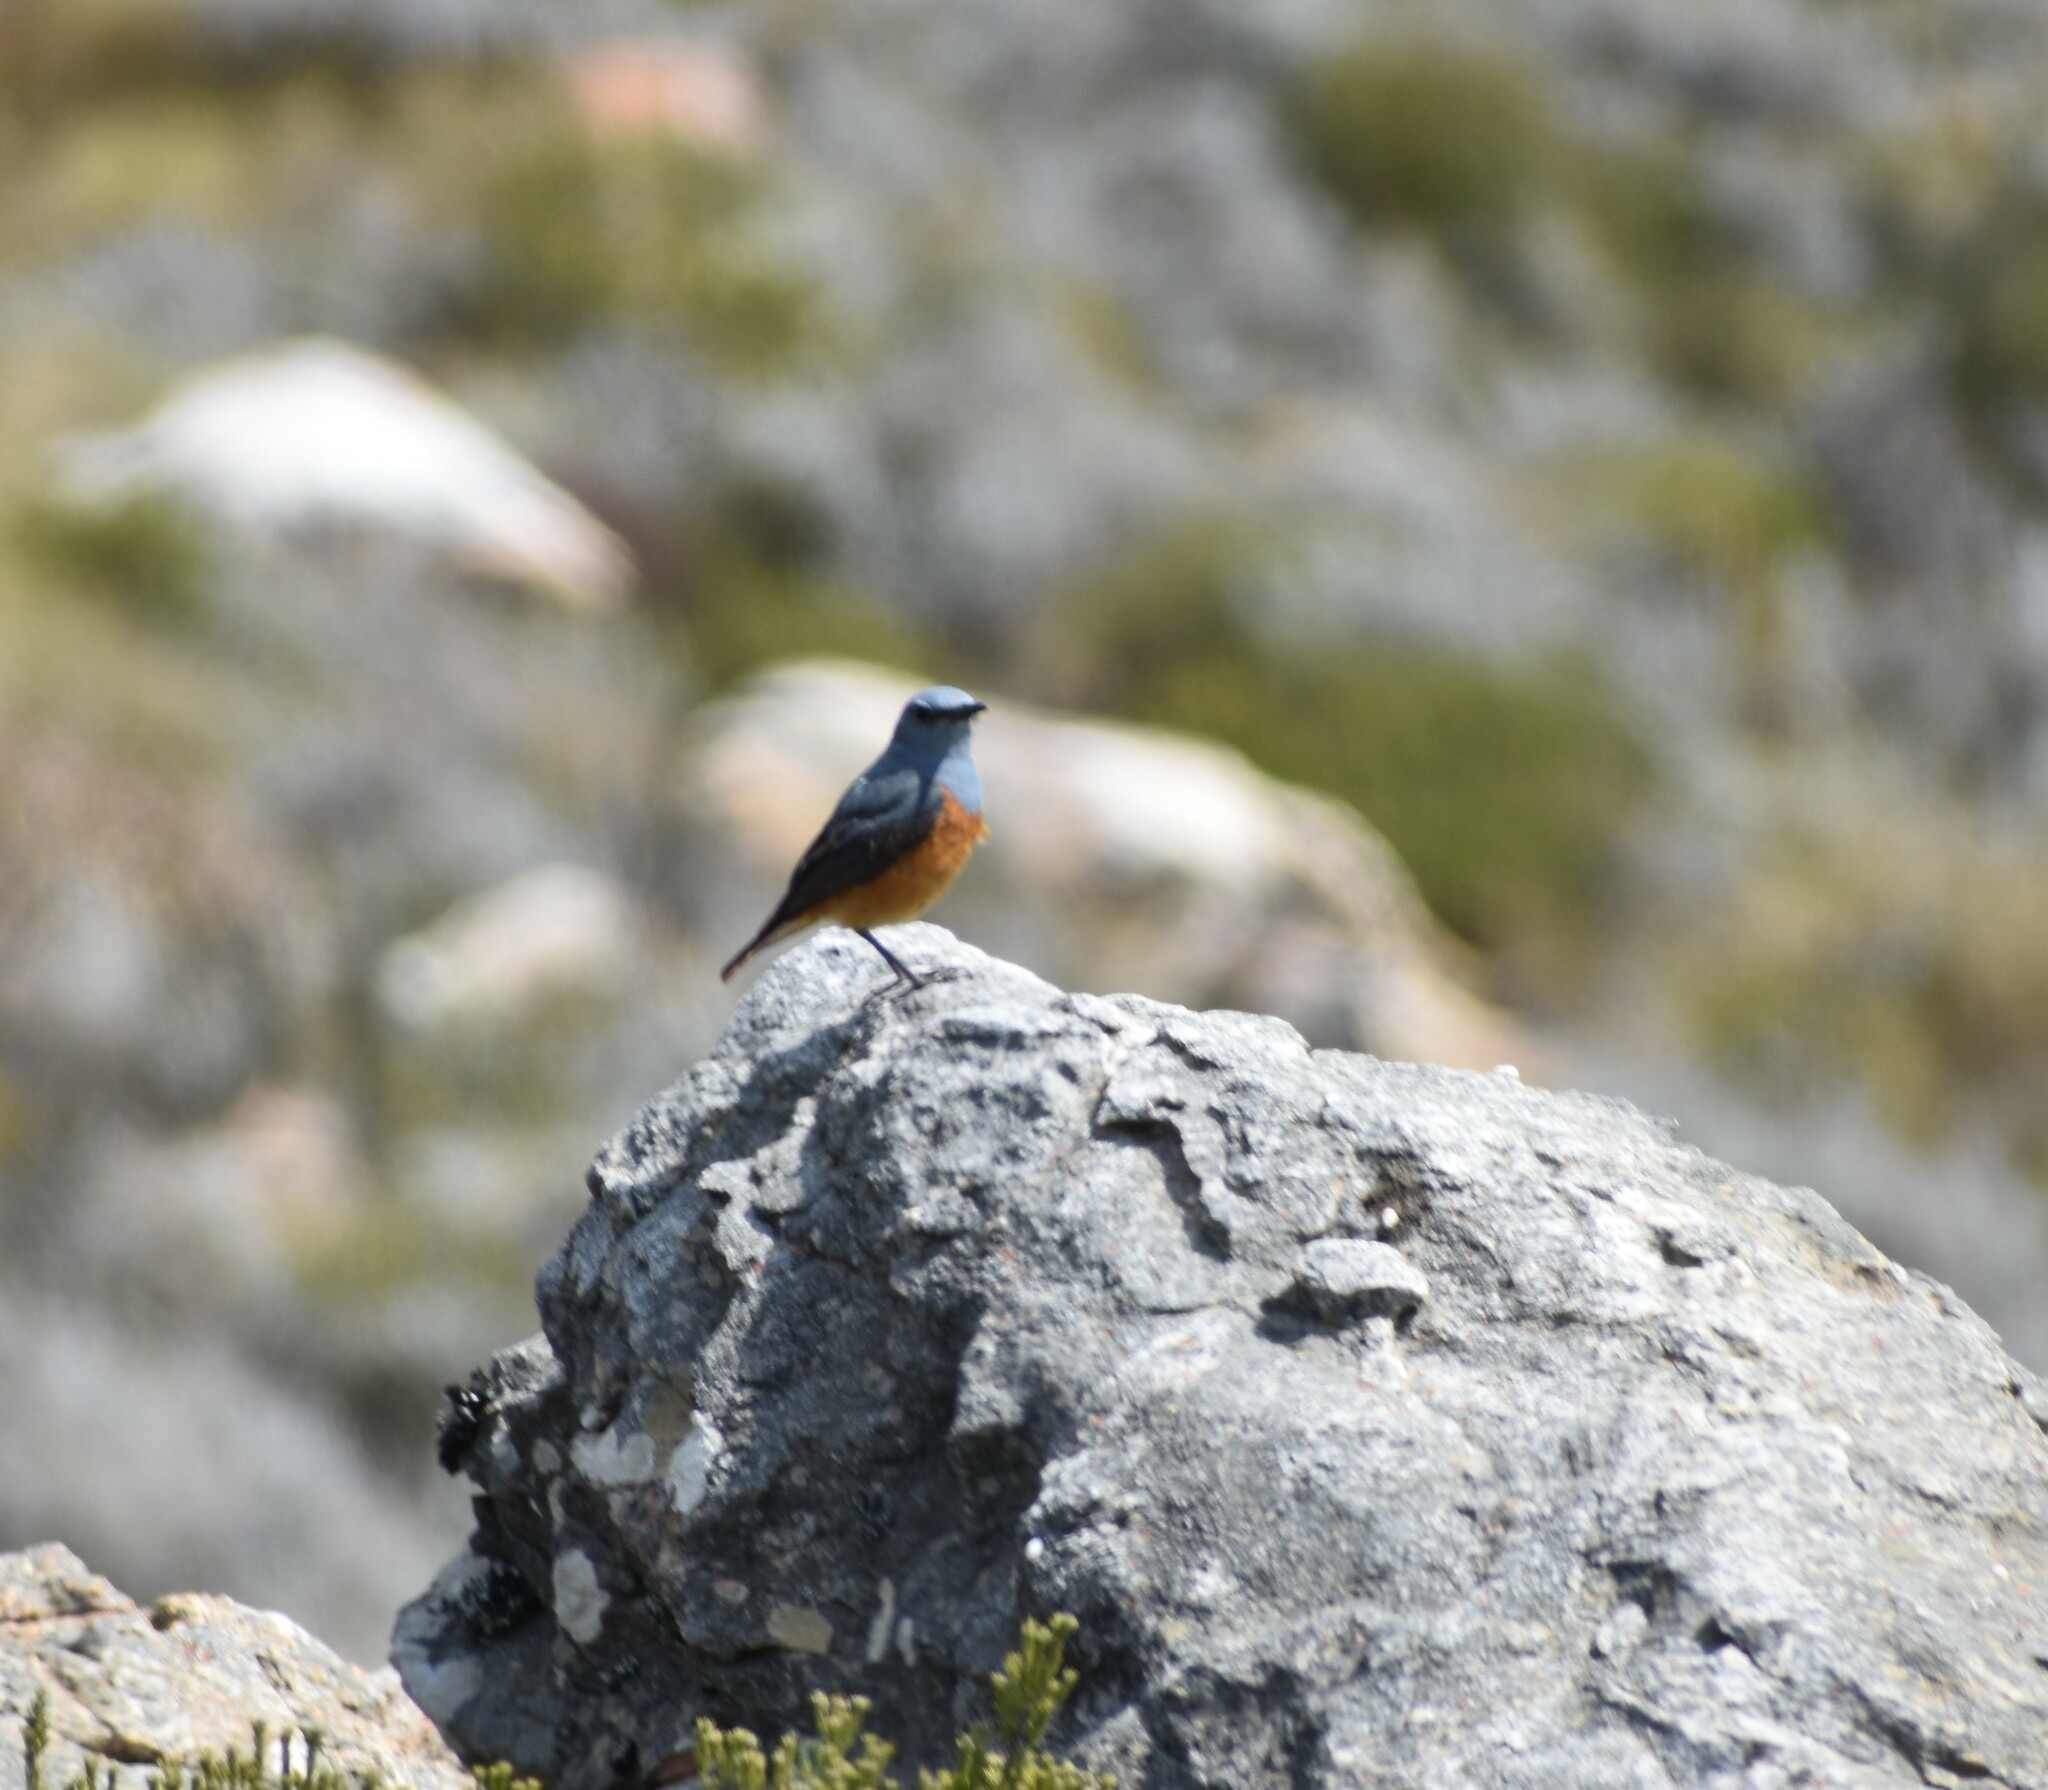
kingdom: Animalia
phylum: Chordata
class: Aves
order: Passeriformes
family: Muscicapidae
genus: Monticola
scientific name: Monticola explorator
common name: Sentinel rock thrush
